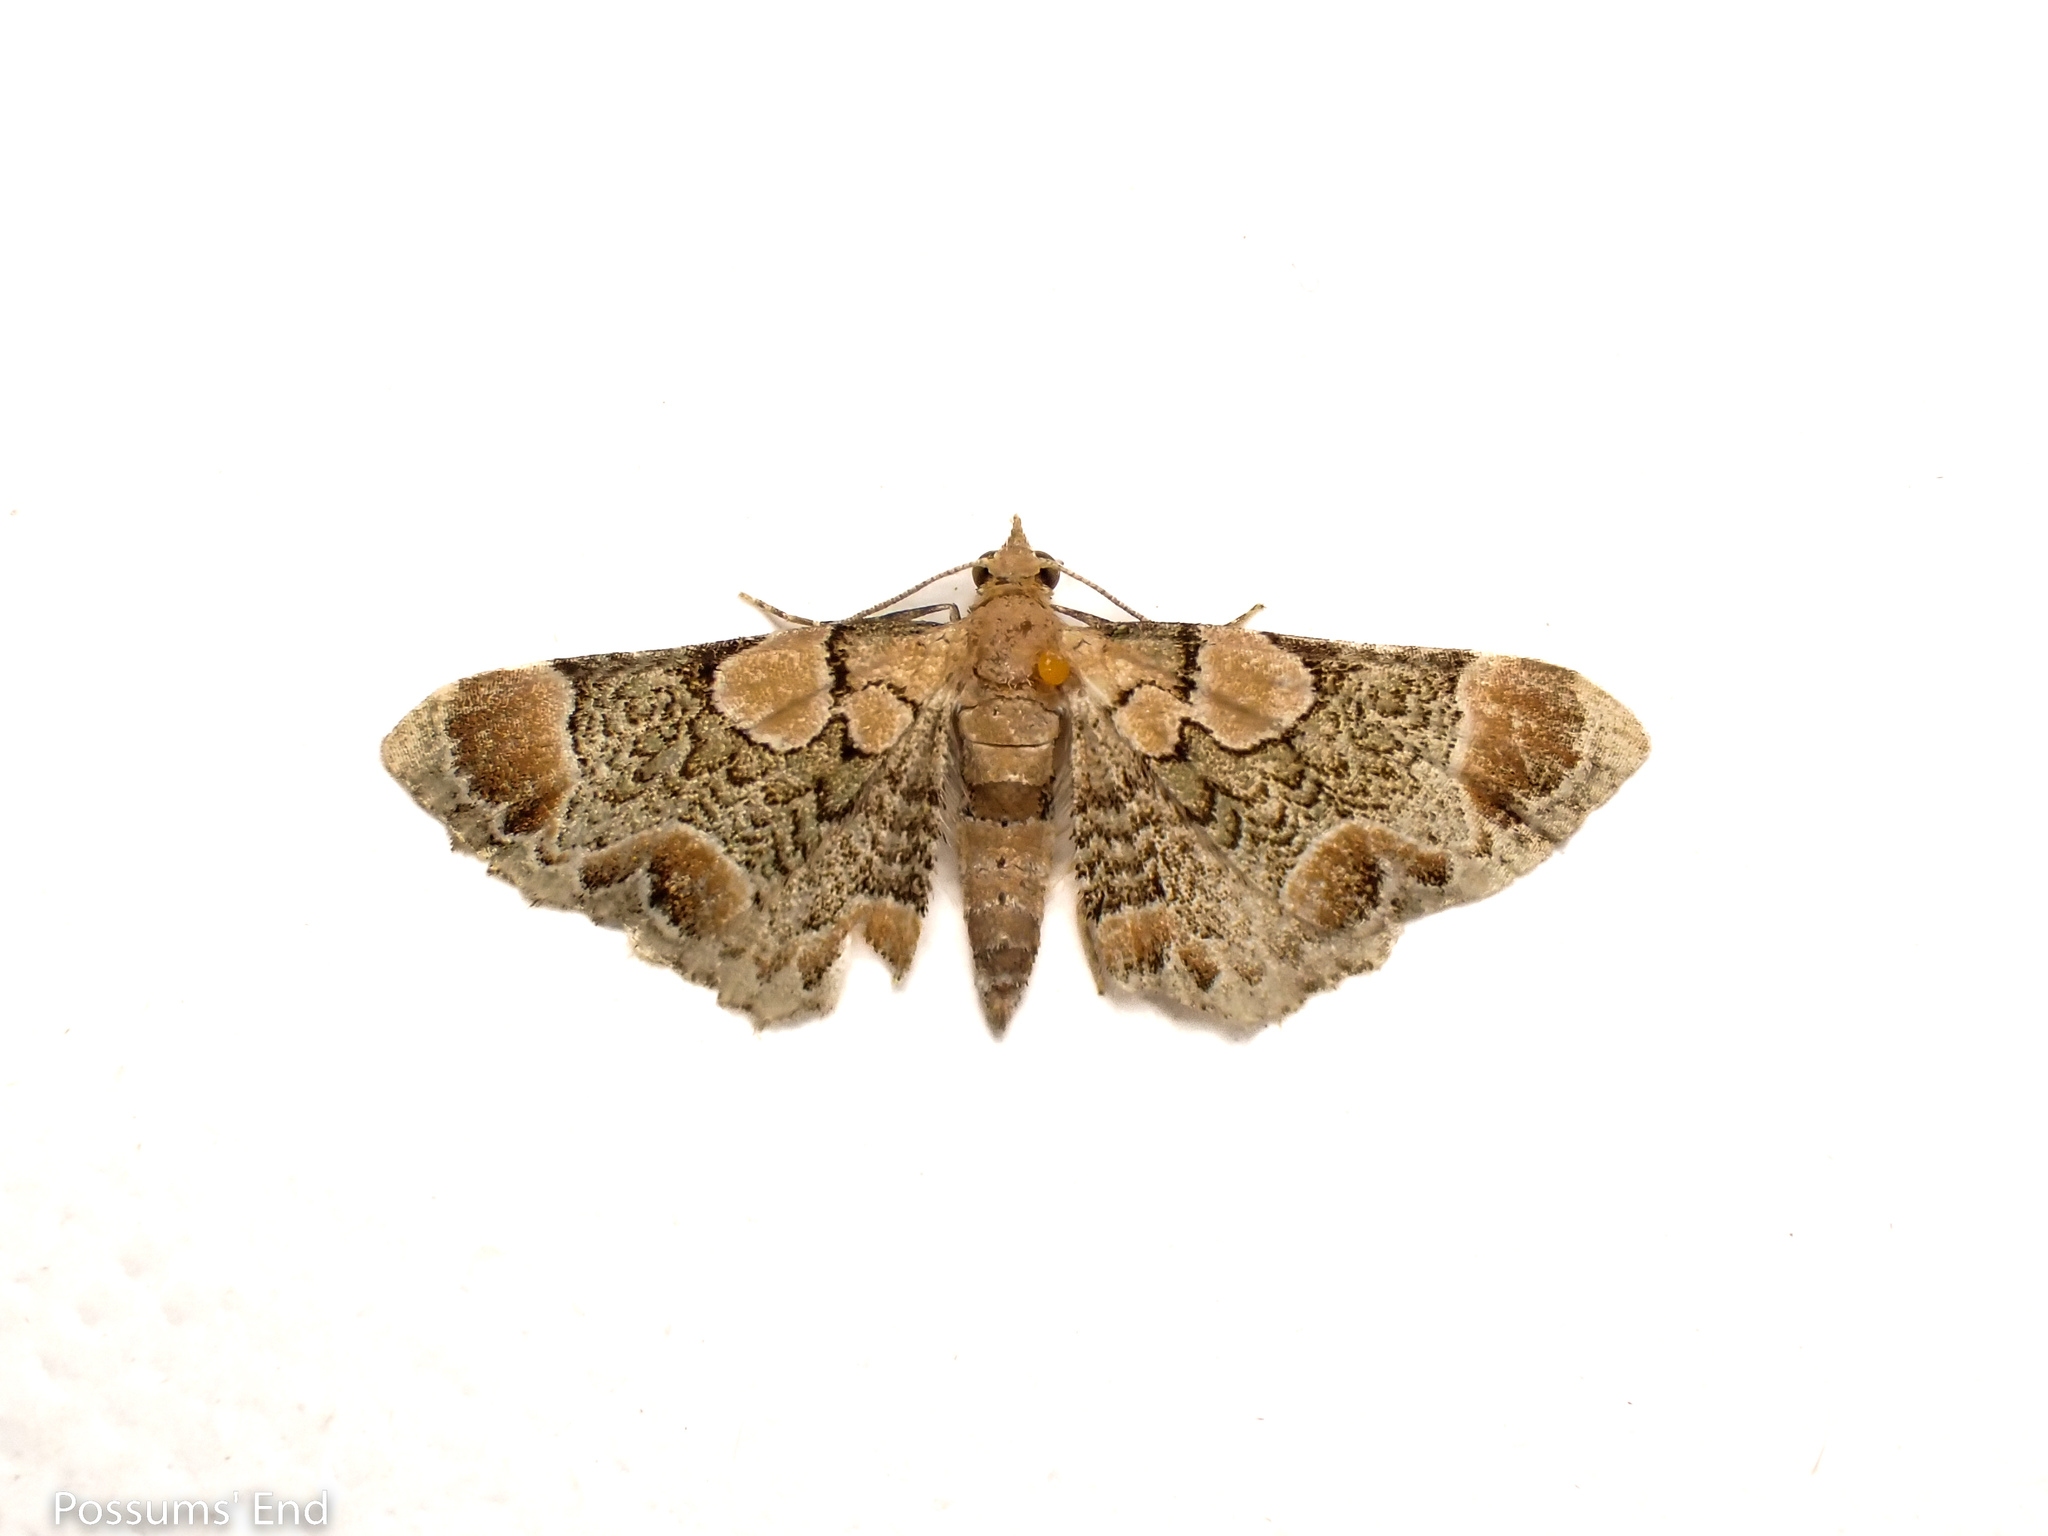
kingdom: Animalia
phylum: Arthropoda
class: Insecta
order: Lepidoptera
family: Geometridae
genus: Chloroclystis
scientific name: Chloroclystis
